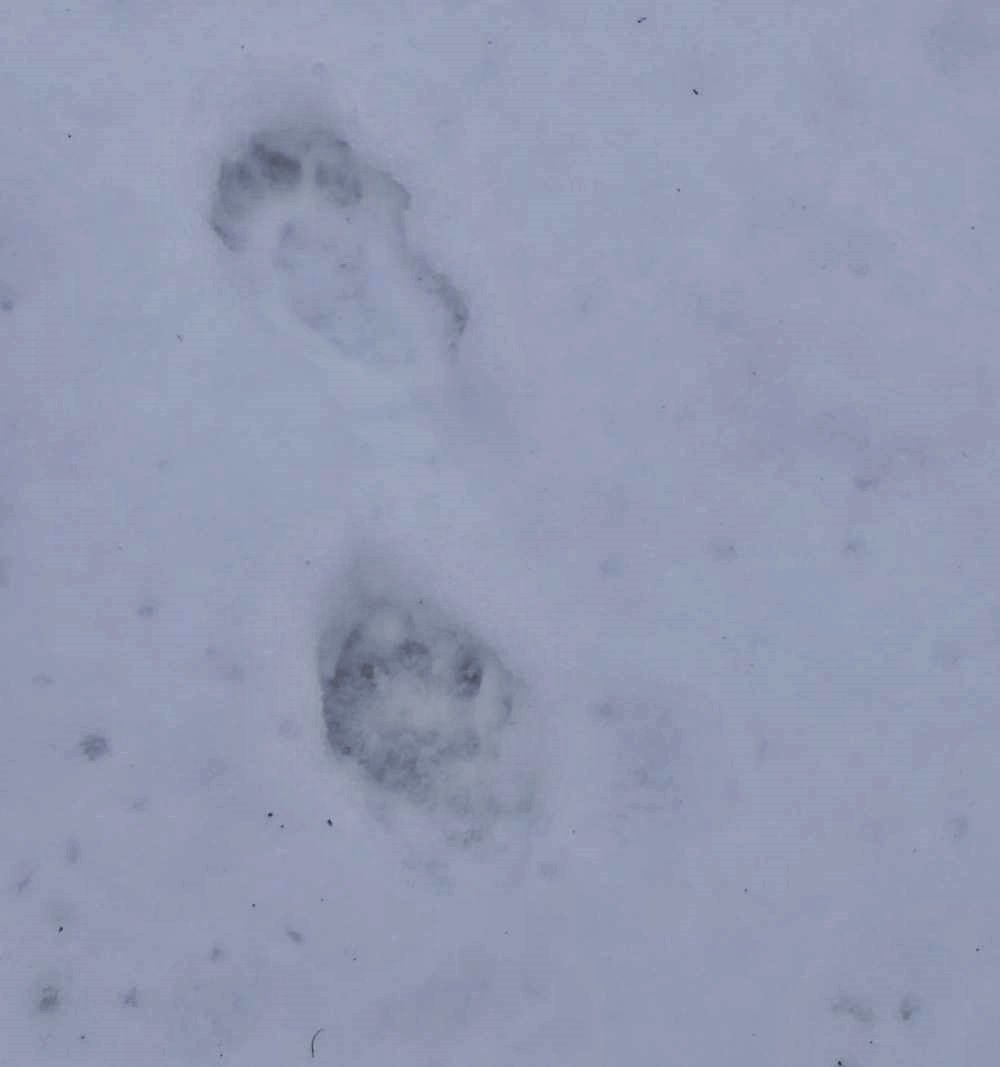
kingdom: Animalia
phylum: Chordata
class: Mammalia
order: Carnivora
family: Mustelidae
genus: Pekania
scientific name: Pekania pennanti
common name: Fisher
